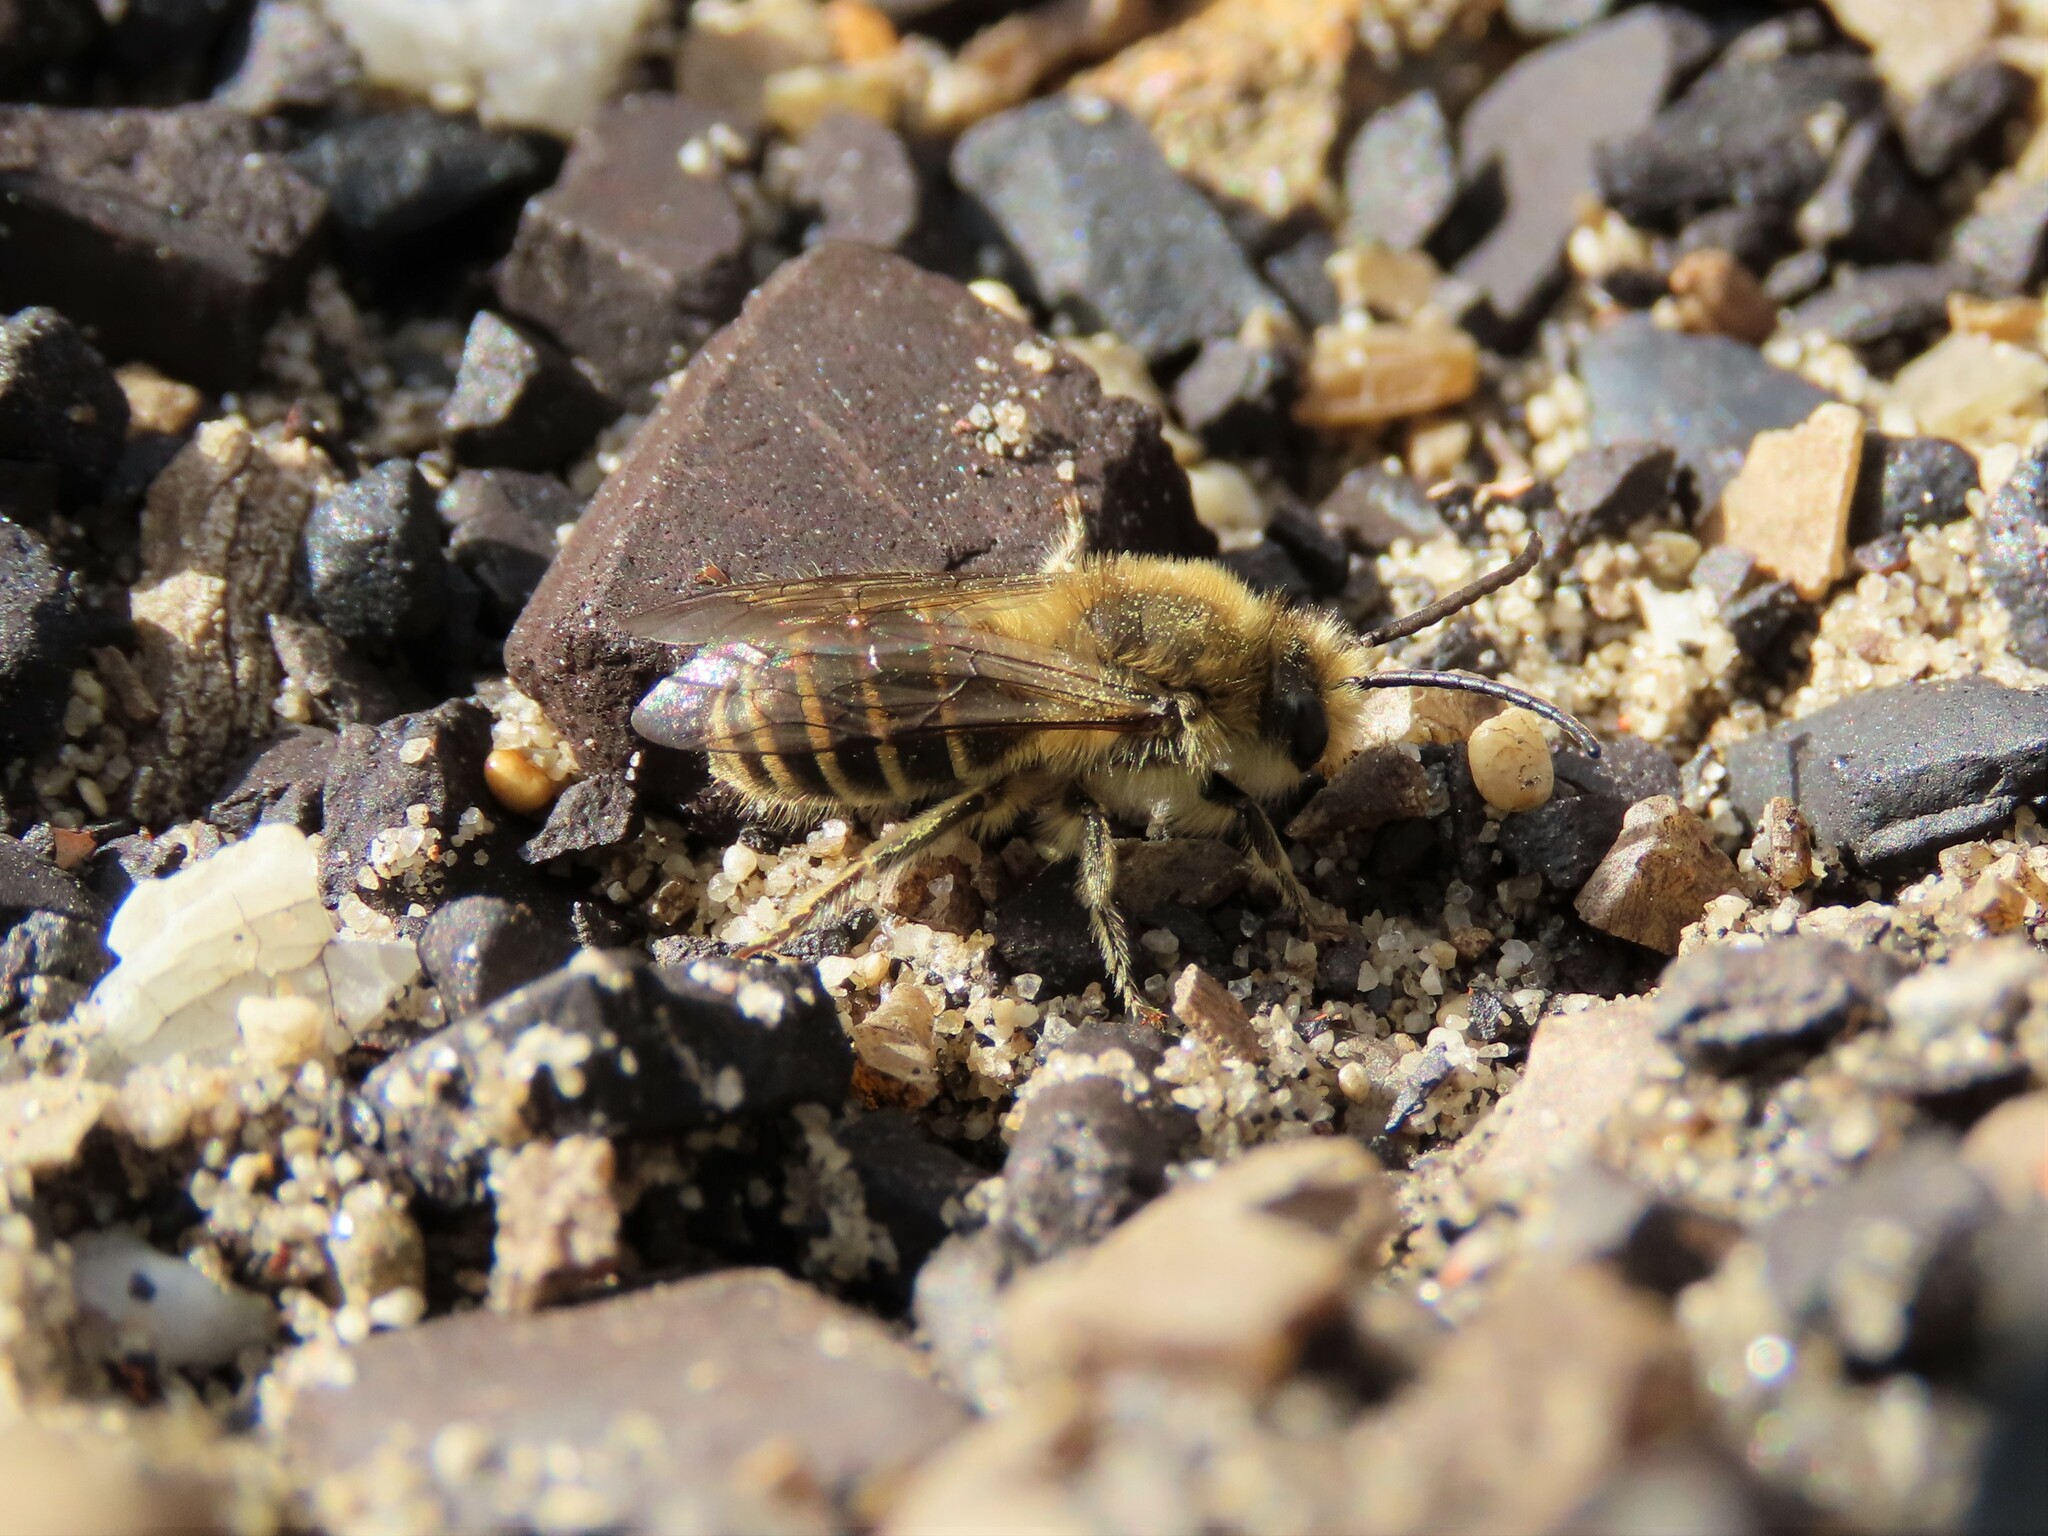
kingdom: Animalia
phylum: Arthropoda
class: Insecta
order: Hymenoptera
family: Colletidae
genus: Colletes
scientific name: Colletes inaequalis
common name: Unequal cellophane bee
